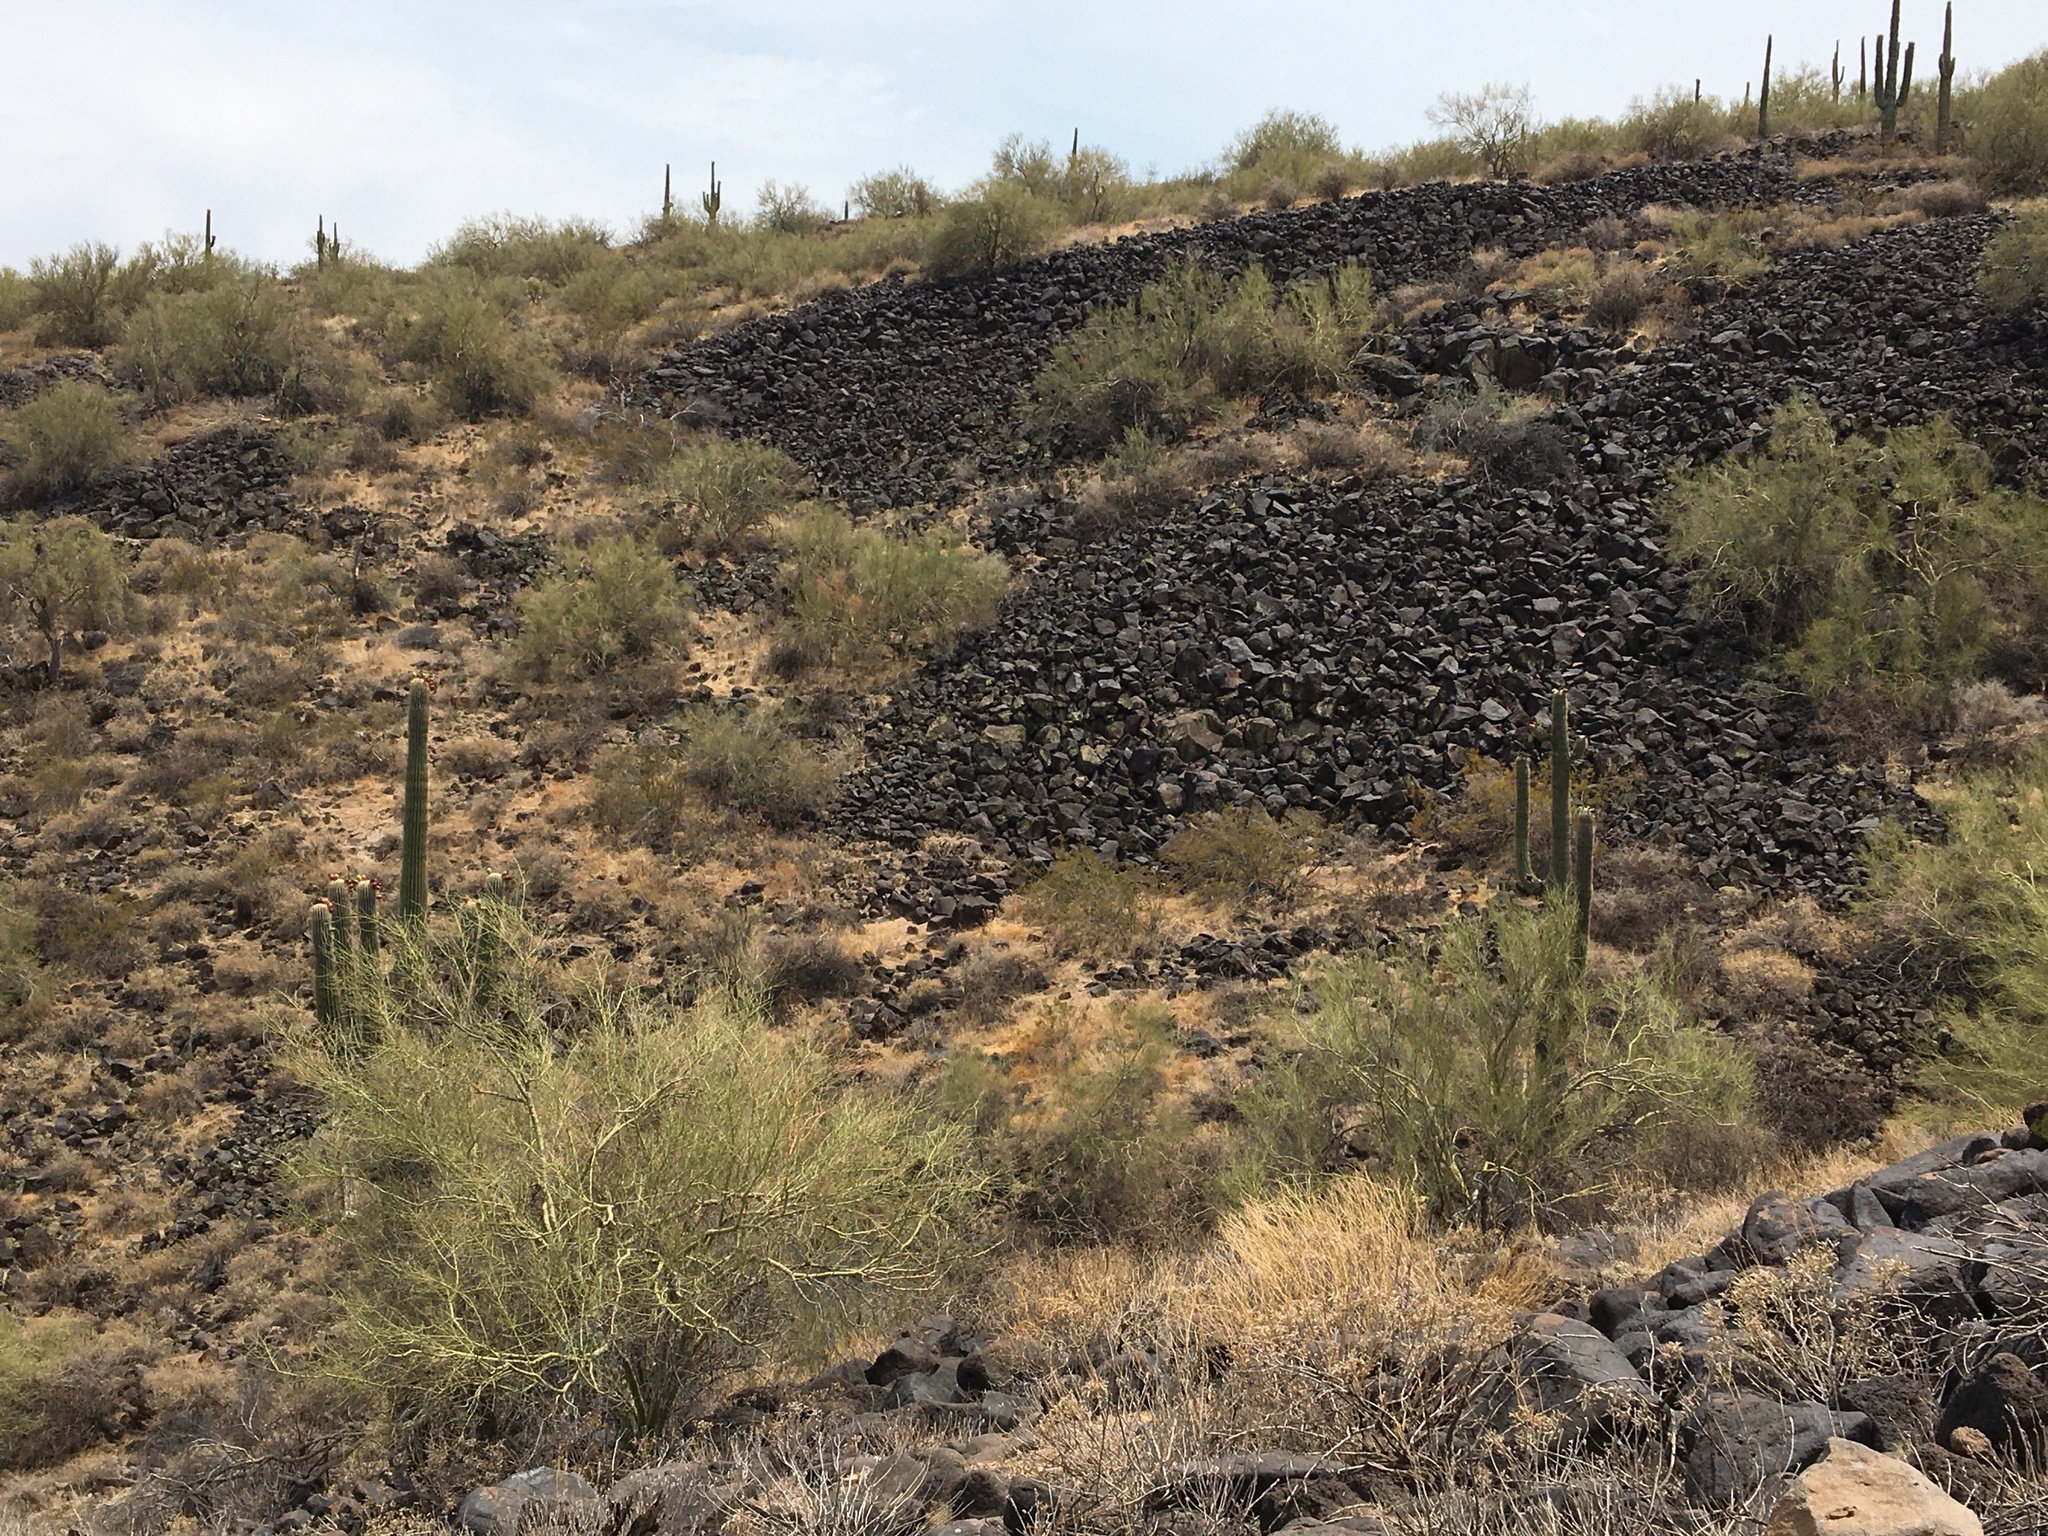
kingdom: Plantae
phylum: Tracheophyta
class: Magnoliopsida
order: Caryophyllales
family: Cactaceae
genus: Carnegiea
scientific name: Carnegiea gigantea
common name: Saguaro
